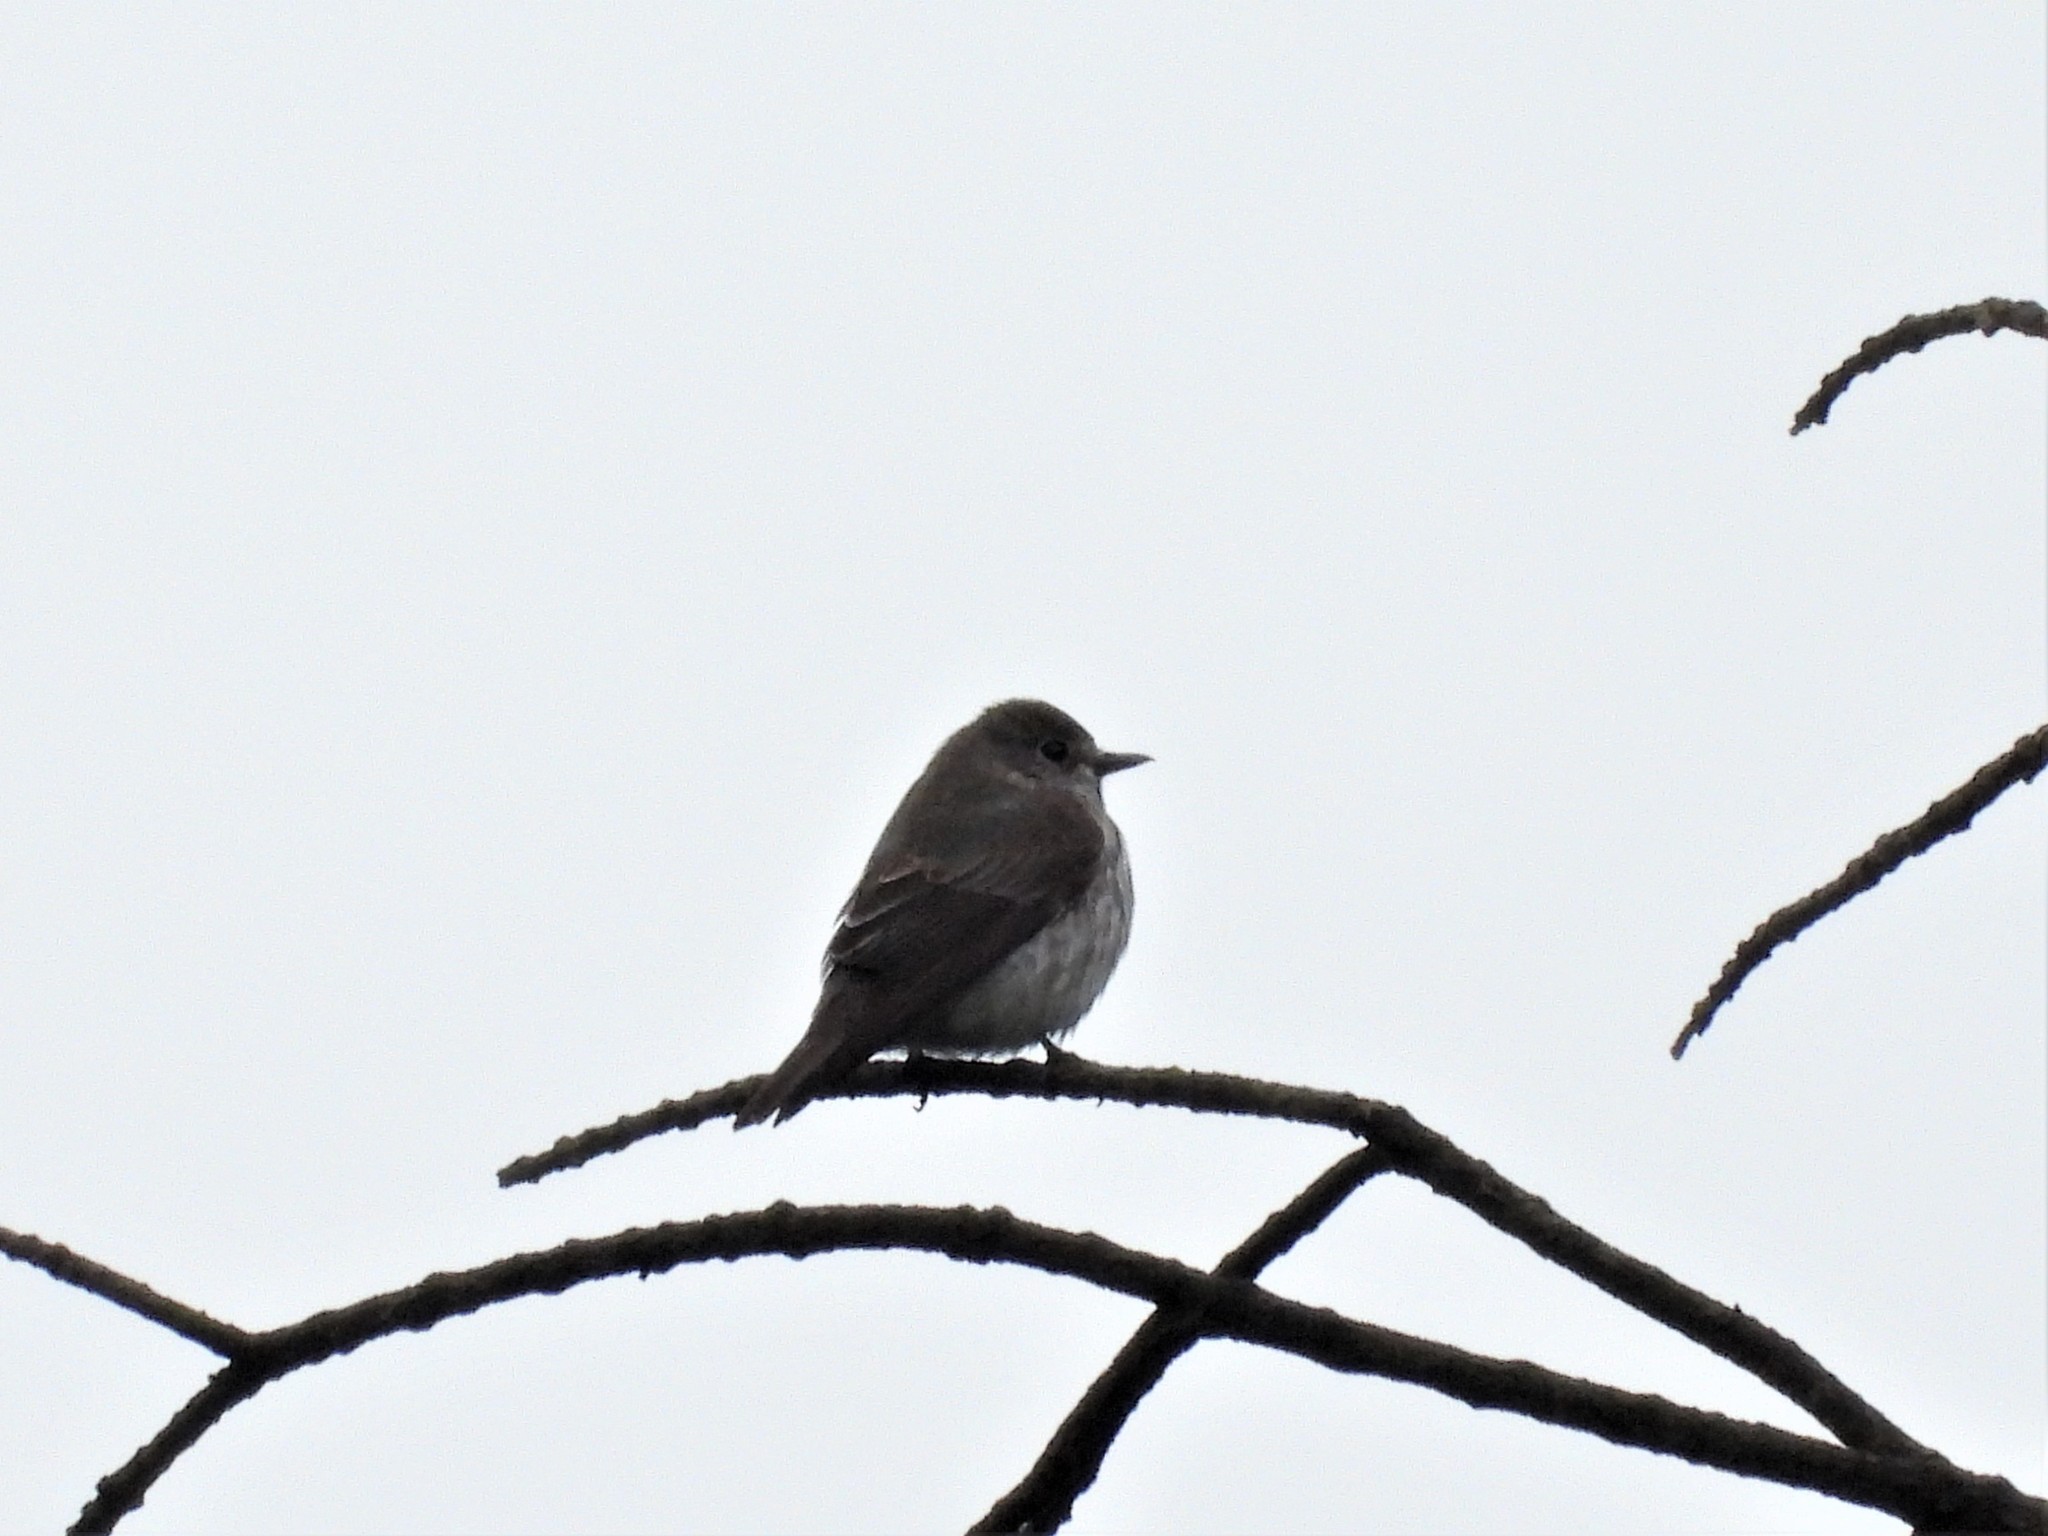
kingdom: Animalia
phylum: Chordata
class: Aves
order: Passeriformes
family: Muscicapidae
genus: Muscicapa
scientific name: Muscicapa griseisticta
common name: Gray-streaked flycatcher
